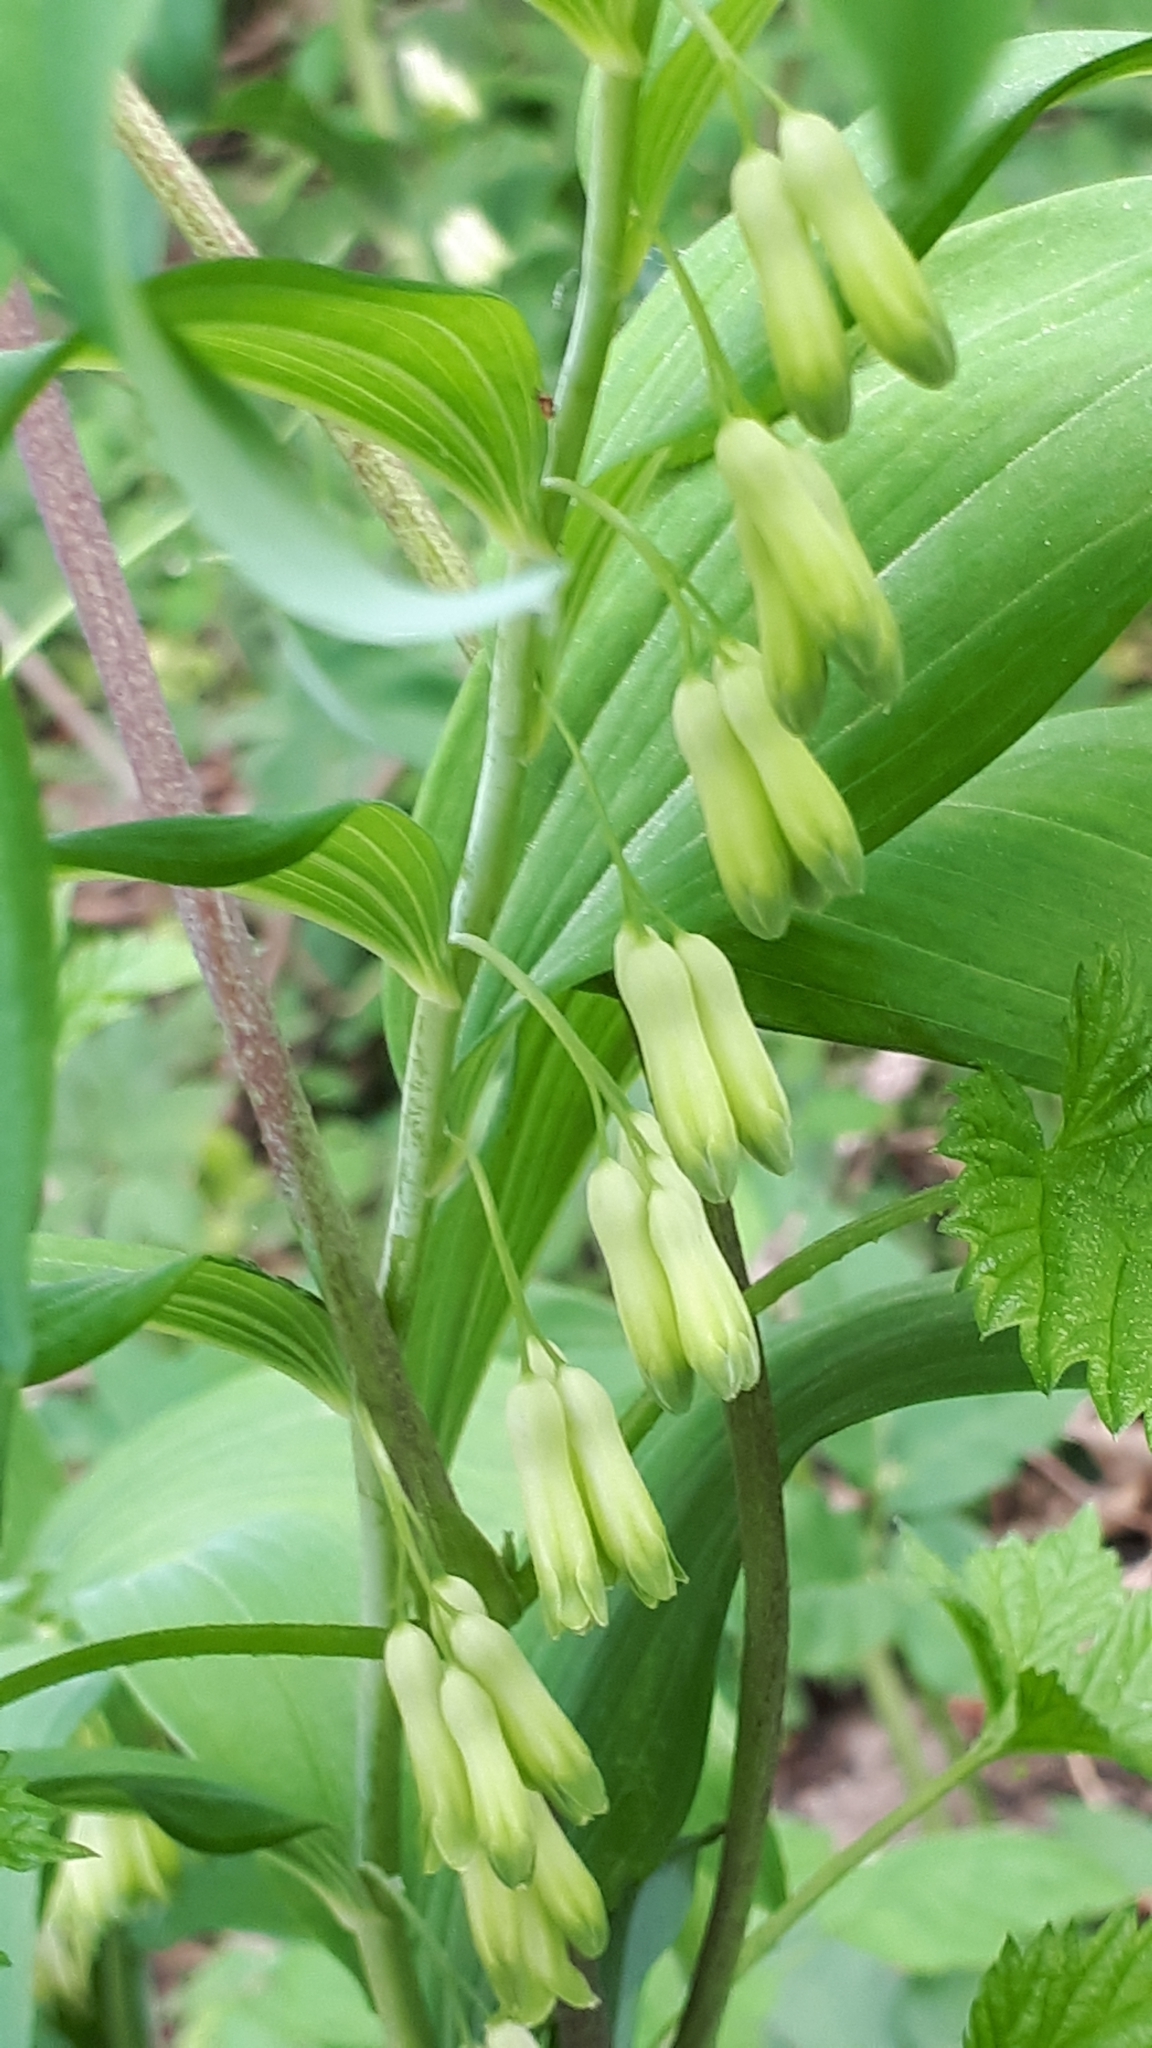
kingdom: Plantae
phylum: Tracheophyta
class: Liliopsida
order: Asparagales
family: Asparagaceae
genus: Polygonatum
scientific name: Polygonatum multiflorum
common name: Solomon's-seal
